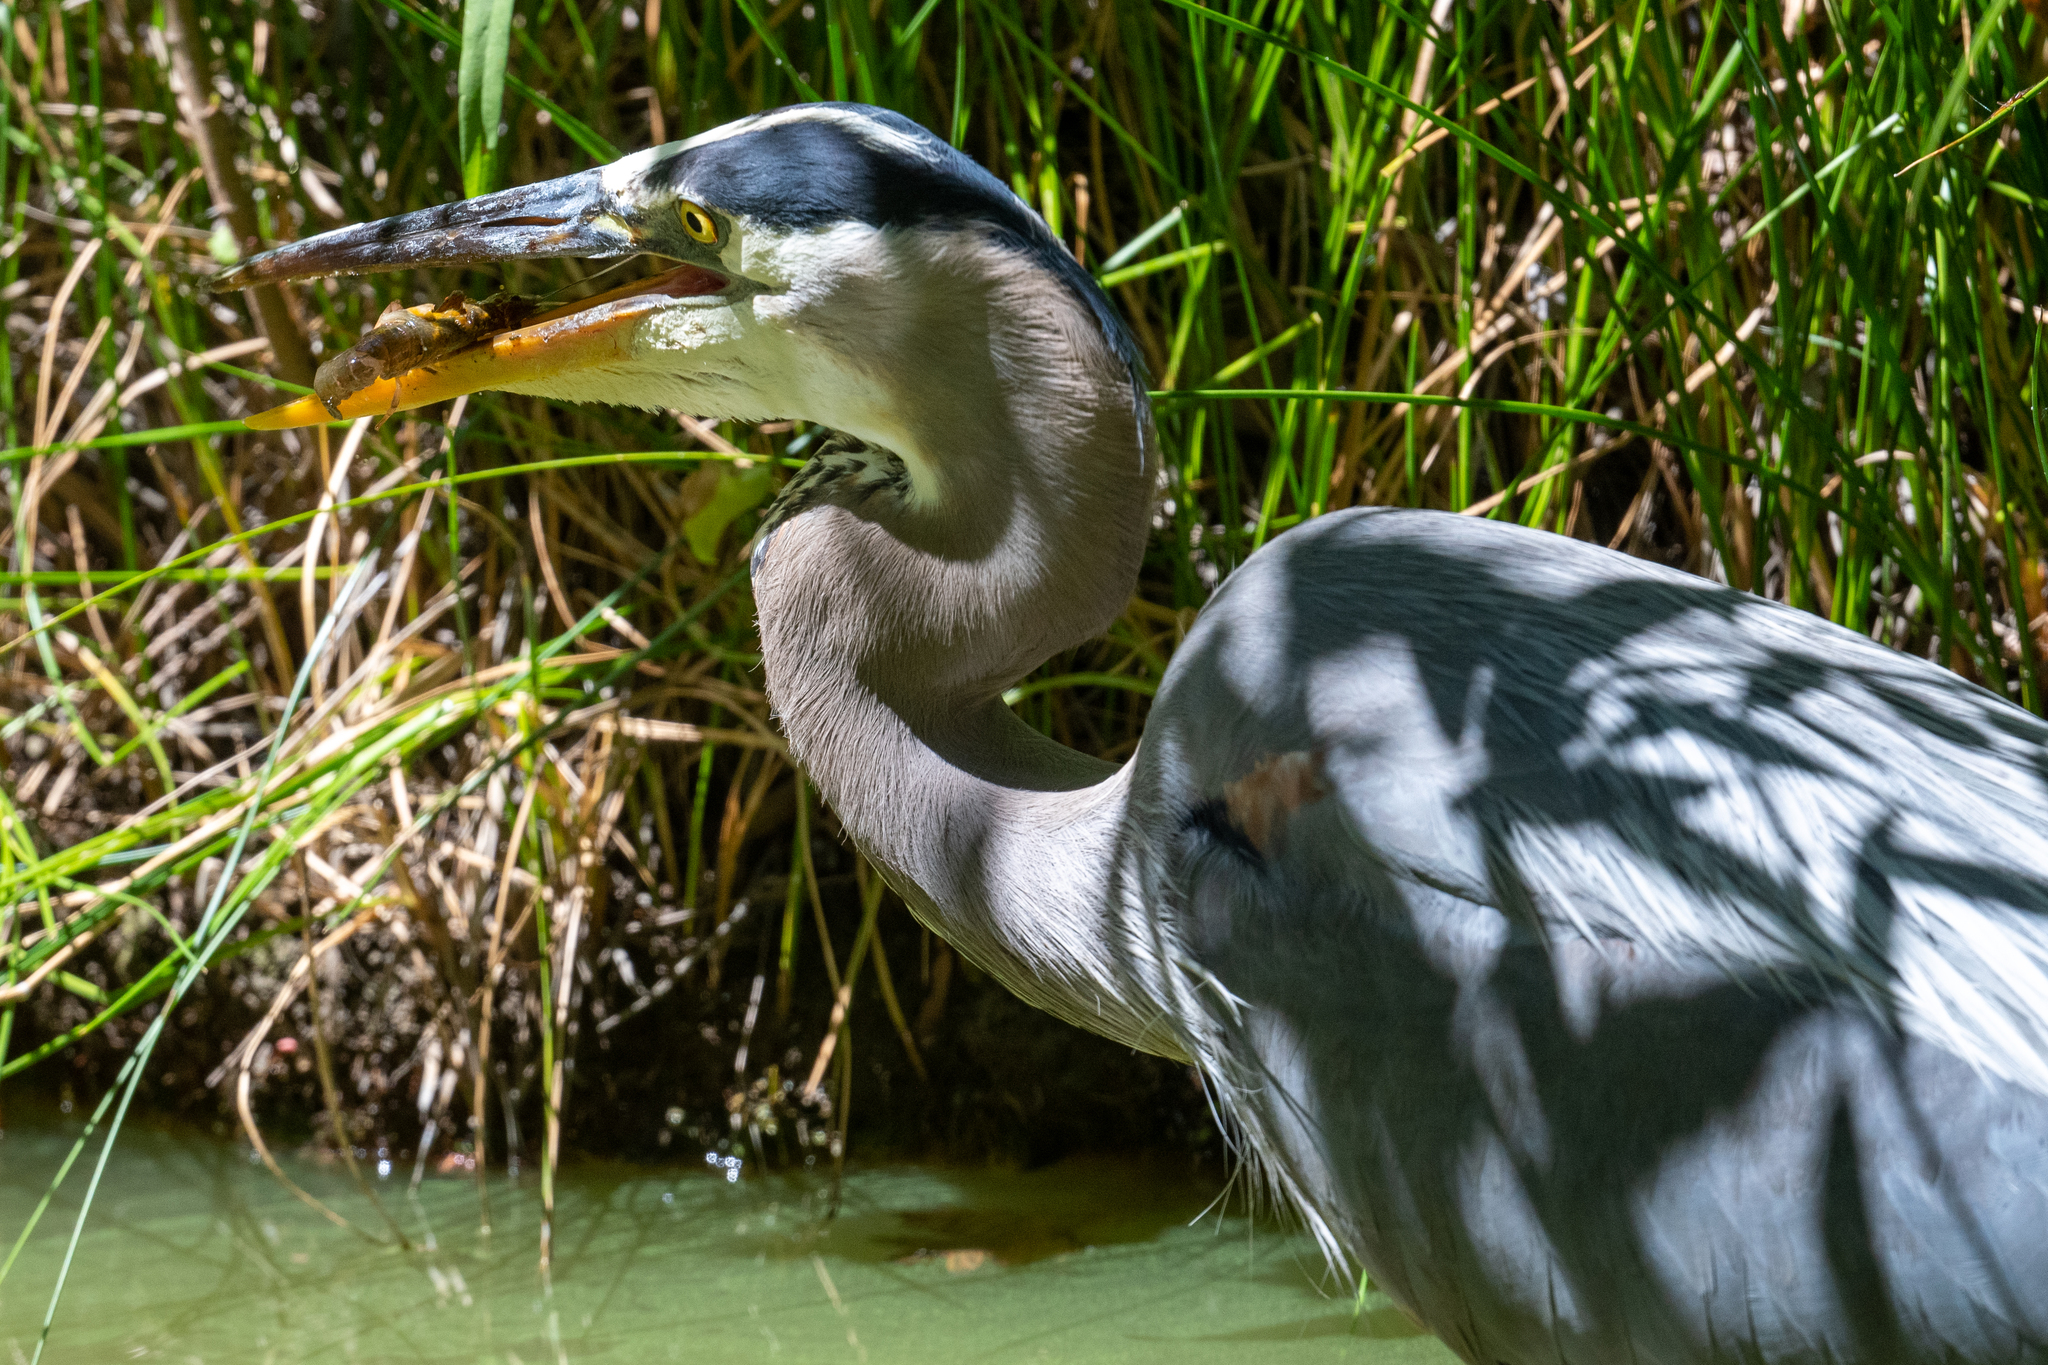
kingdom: Animalia
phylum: Chordata
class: Aves
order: Pelecaniformes
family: Ardeidae
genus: Ardea
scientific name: Ardea herodias
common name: Great blue heron
